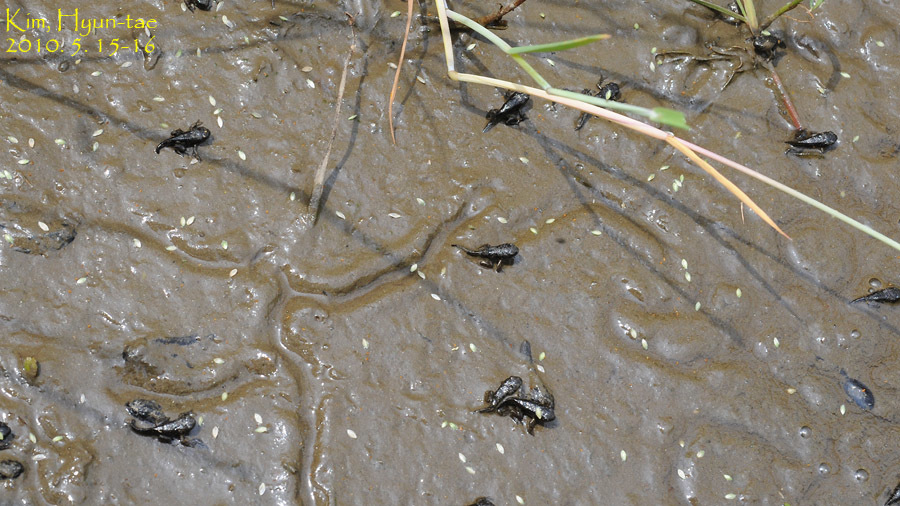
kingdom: Animalia
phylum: Chordata
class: Amphibia
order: Anura
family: Bufonidae
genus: Bufo
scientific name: Bufo gargarizans
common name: Asiatic toad
